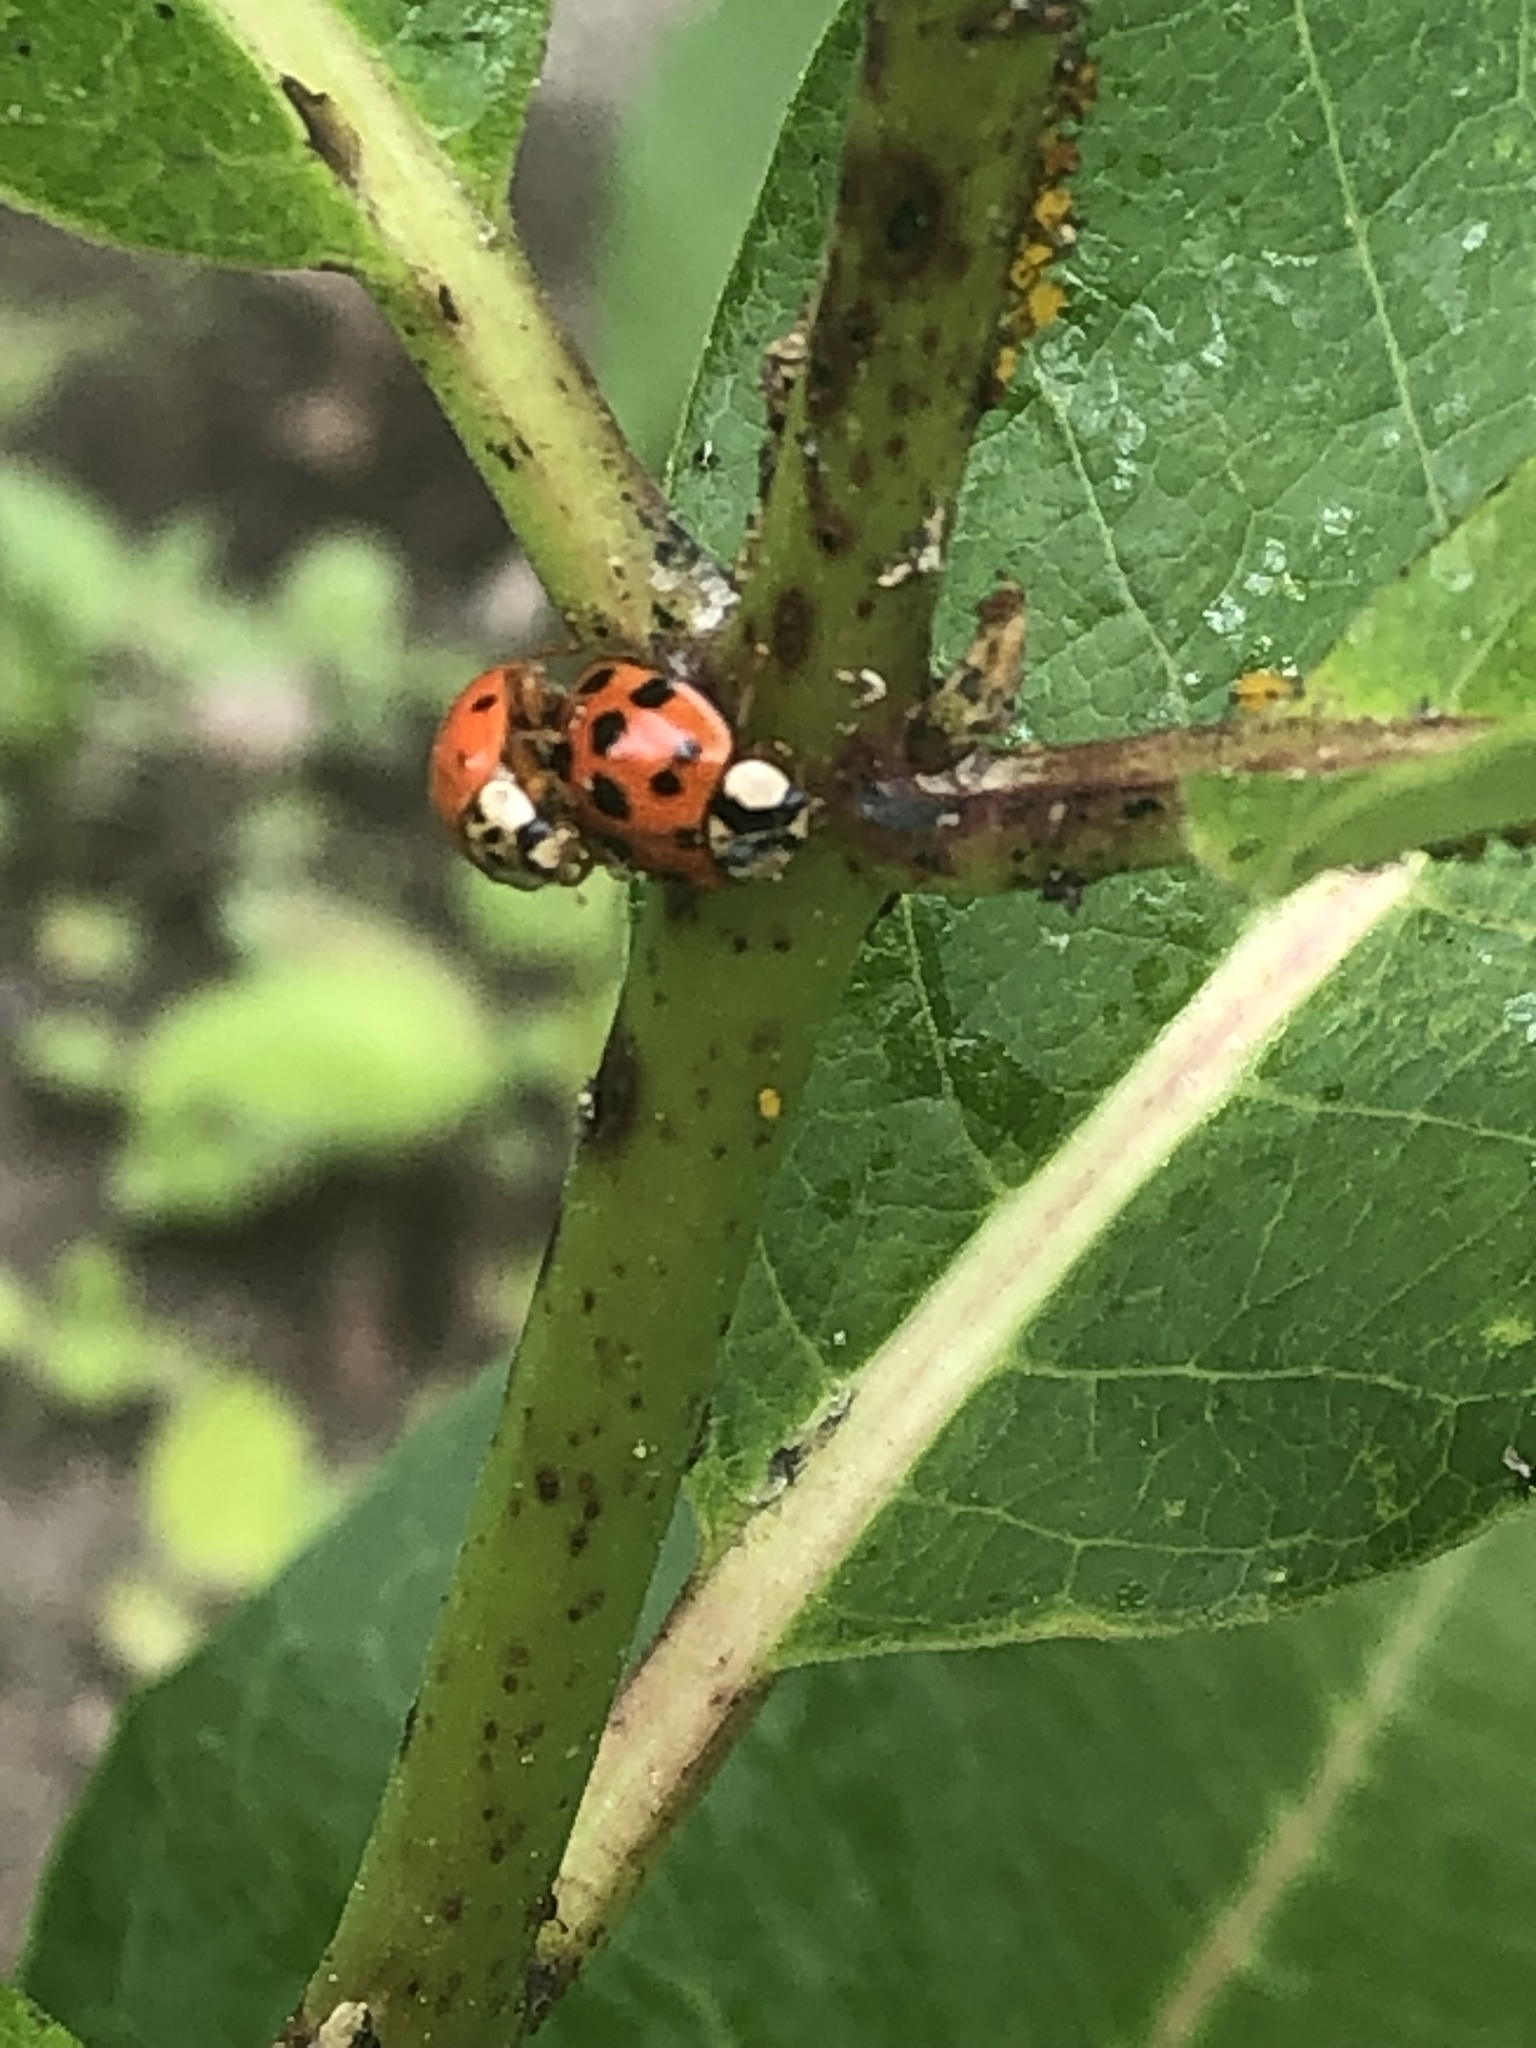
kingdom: Animalia
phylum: Arthropoda
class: Insecta
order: Coleoptera
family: Coccinellidae
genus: Harmonia
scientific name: Harmonia axyridis
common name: Harlequin ladybird
